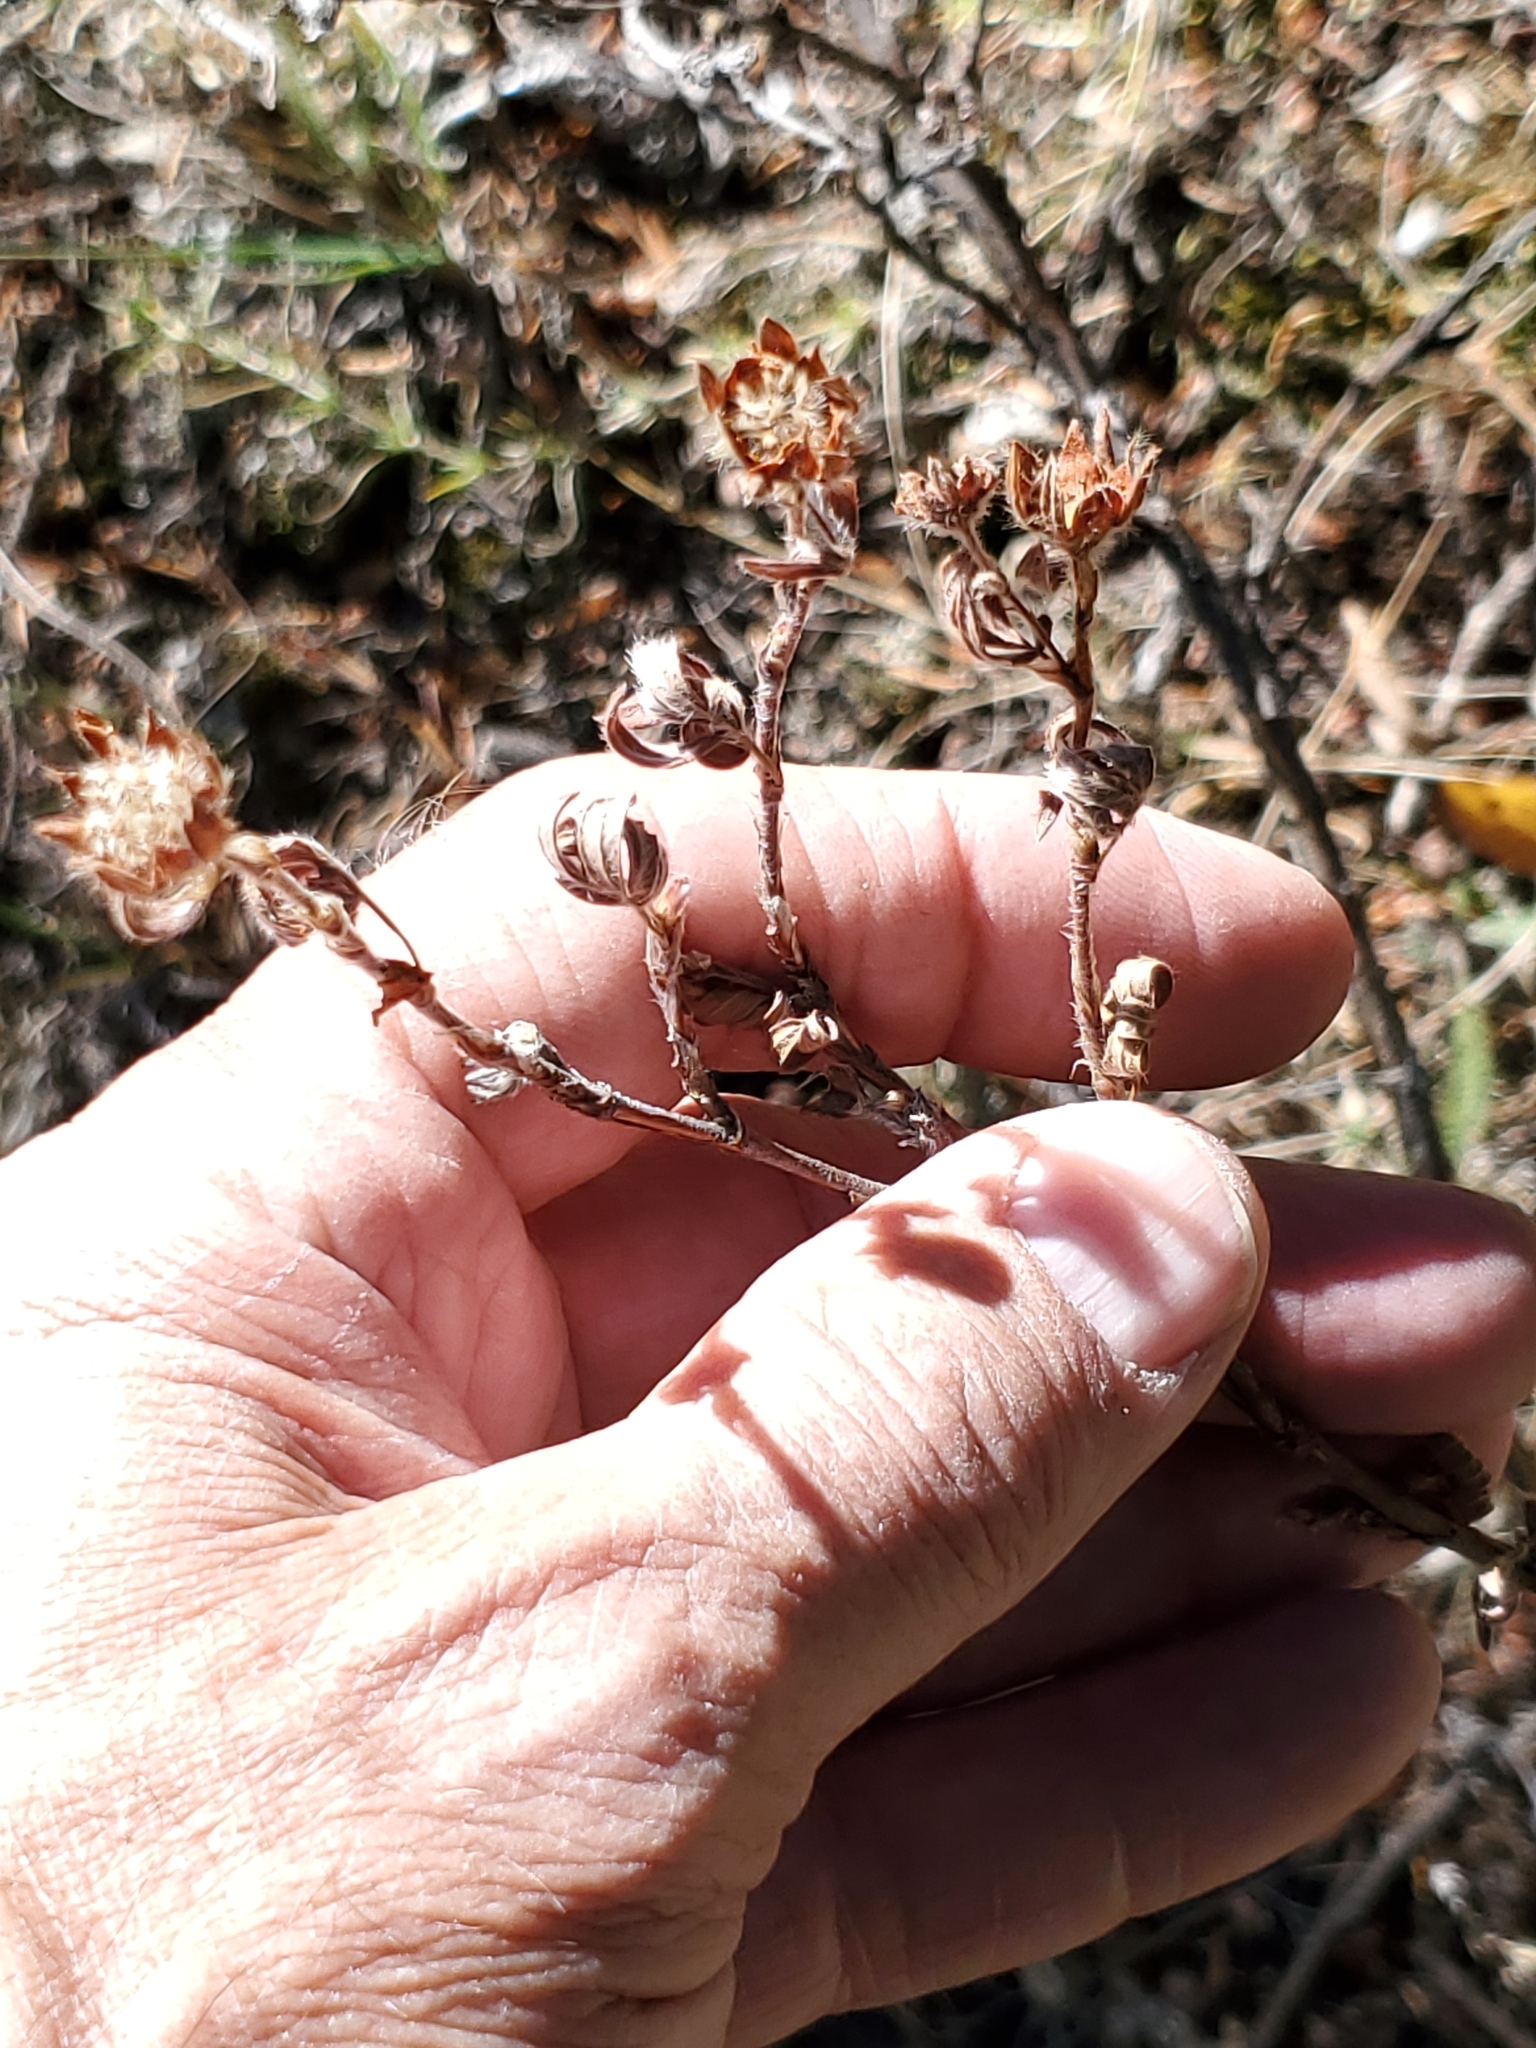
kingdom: Plantae
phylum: Tracheophyta
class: Magnoliopsida
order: Rosales
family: Rosaceae
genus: Dasiphora
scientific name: Dasiphora fruticosa
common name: Shrubby cinquefoil
